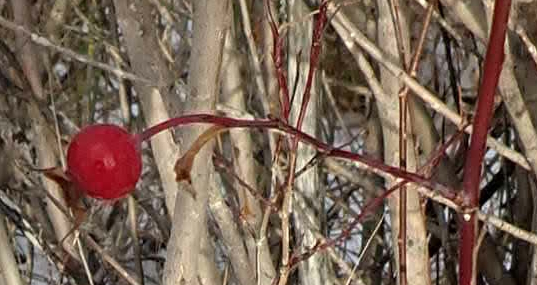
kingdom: Plantae
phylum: Tracheophyta
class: Magnoliopsida
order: Rosales
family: Rosaceae
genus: Rosa
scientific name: Rosa woodsii
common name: Woods's rose
